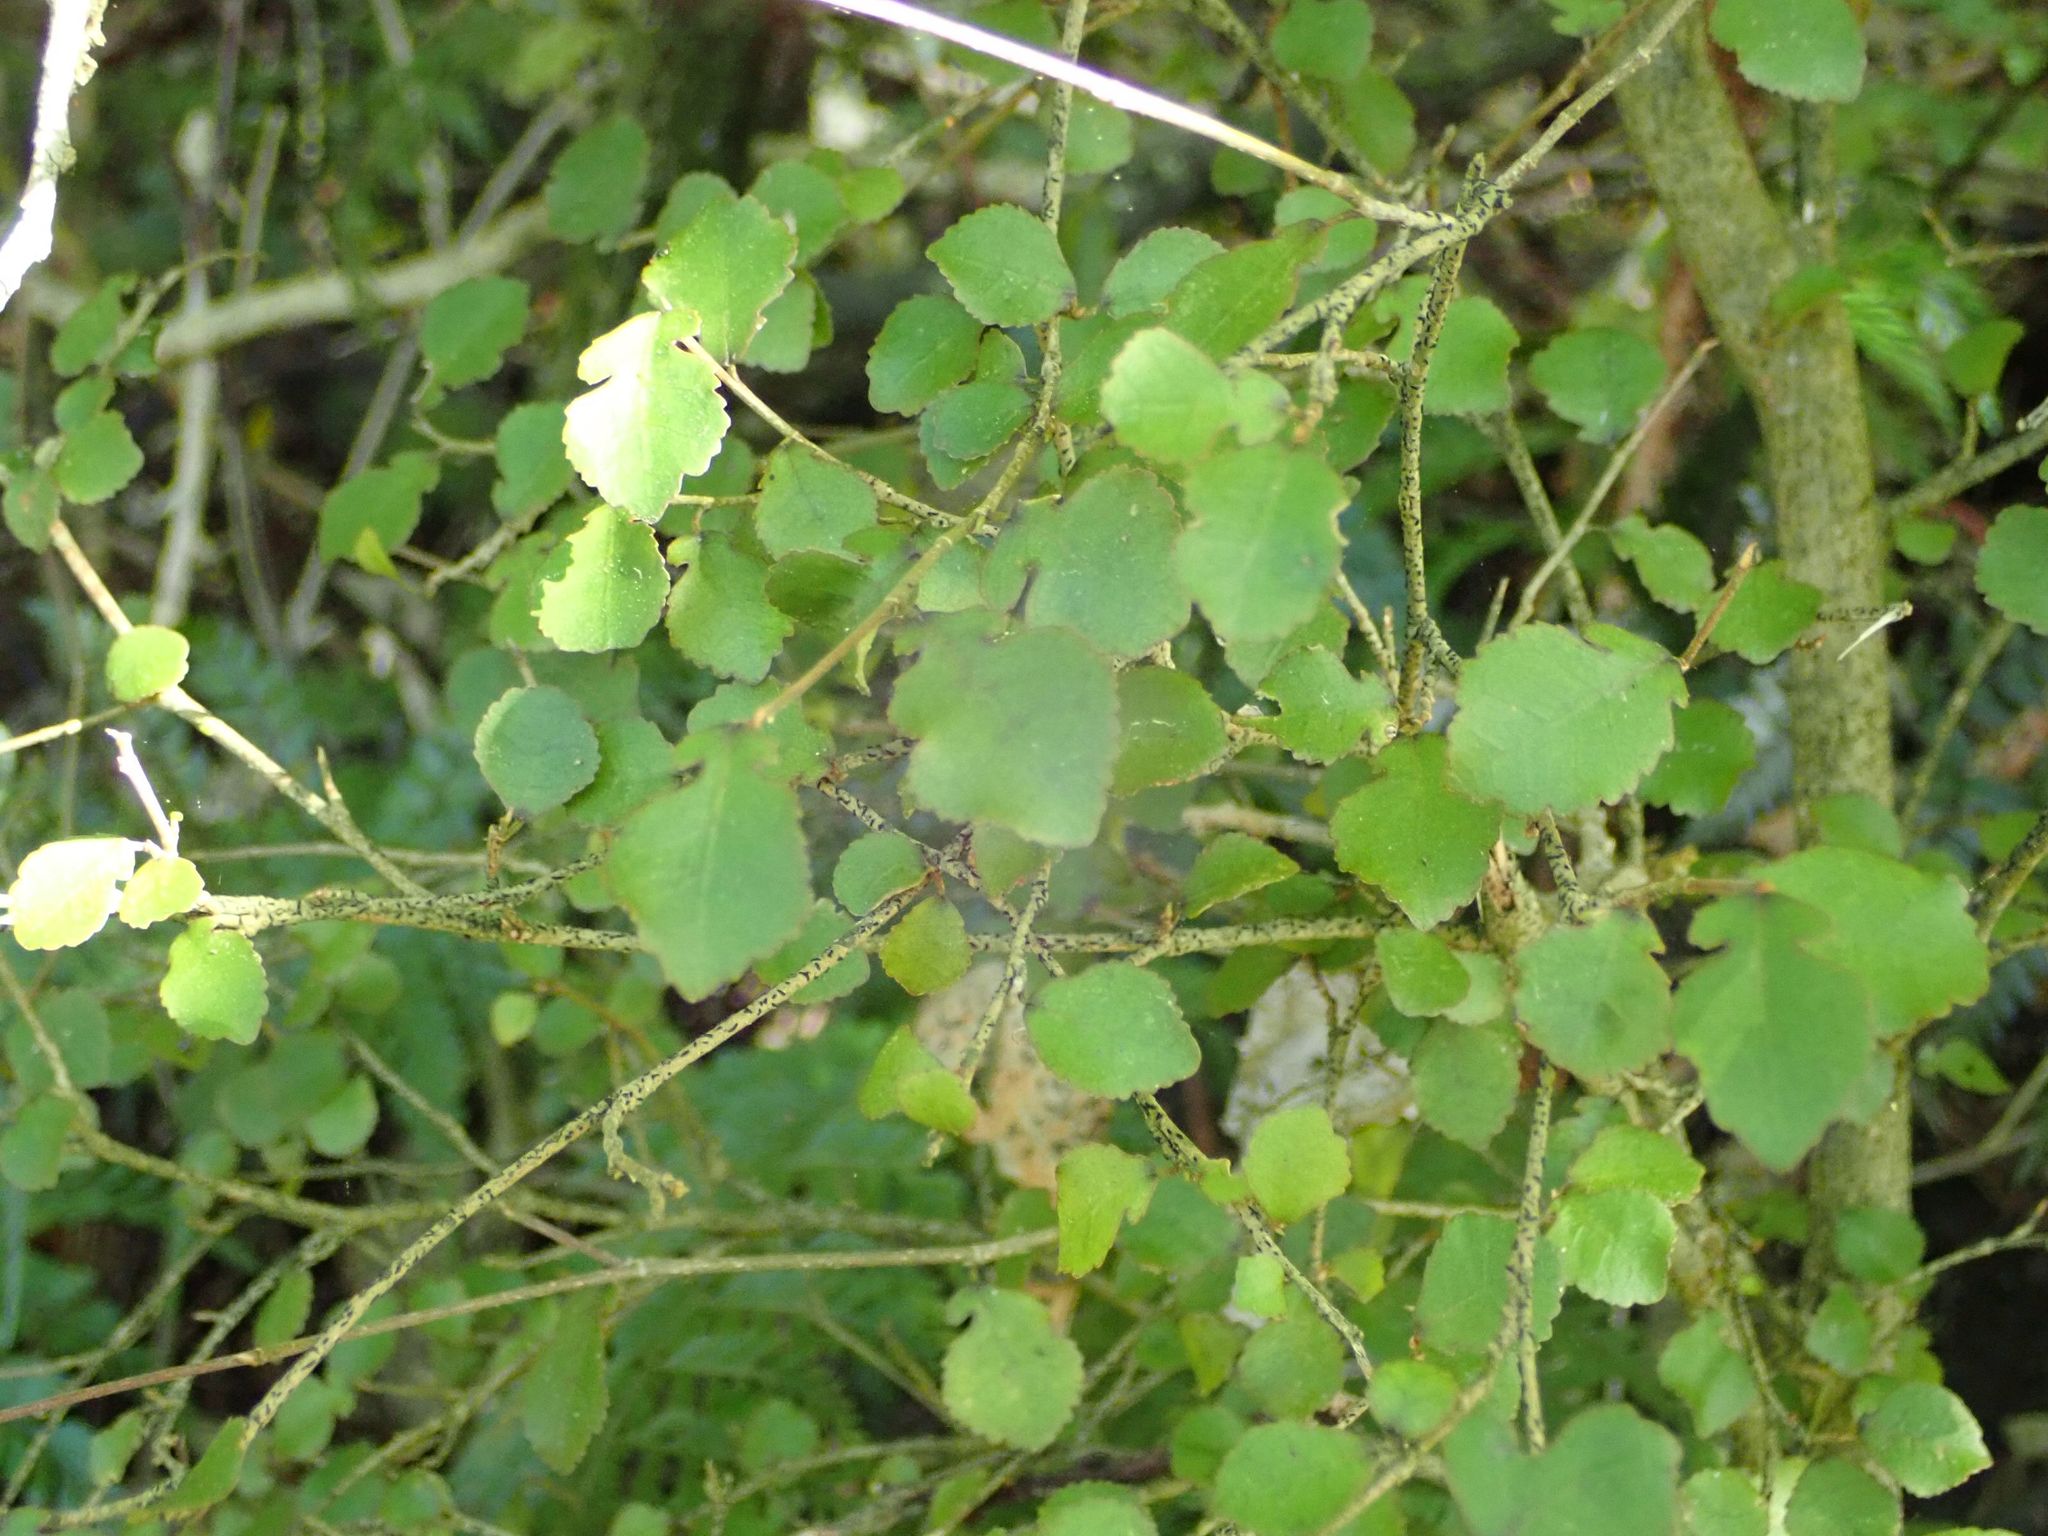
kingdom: Plantae
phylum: Tracheophyta
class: Magnoliopsida
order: Rosales
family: Moraceae
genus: Paratrophis
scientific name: Paratrophis microphylla
